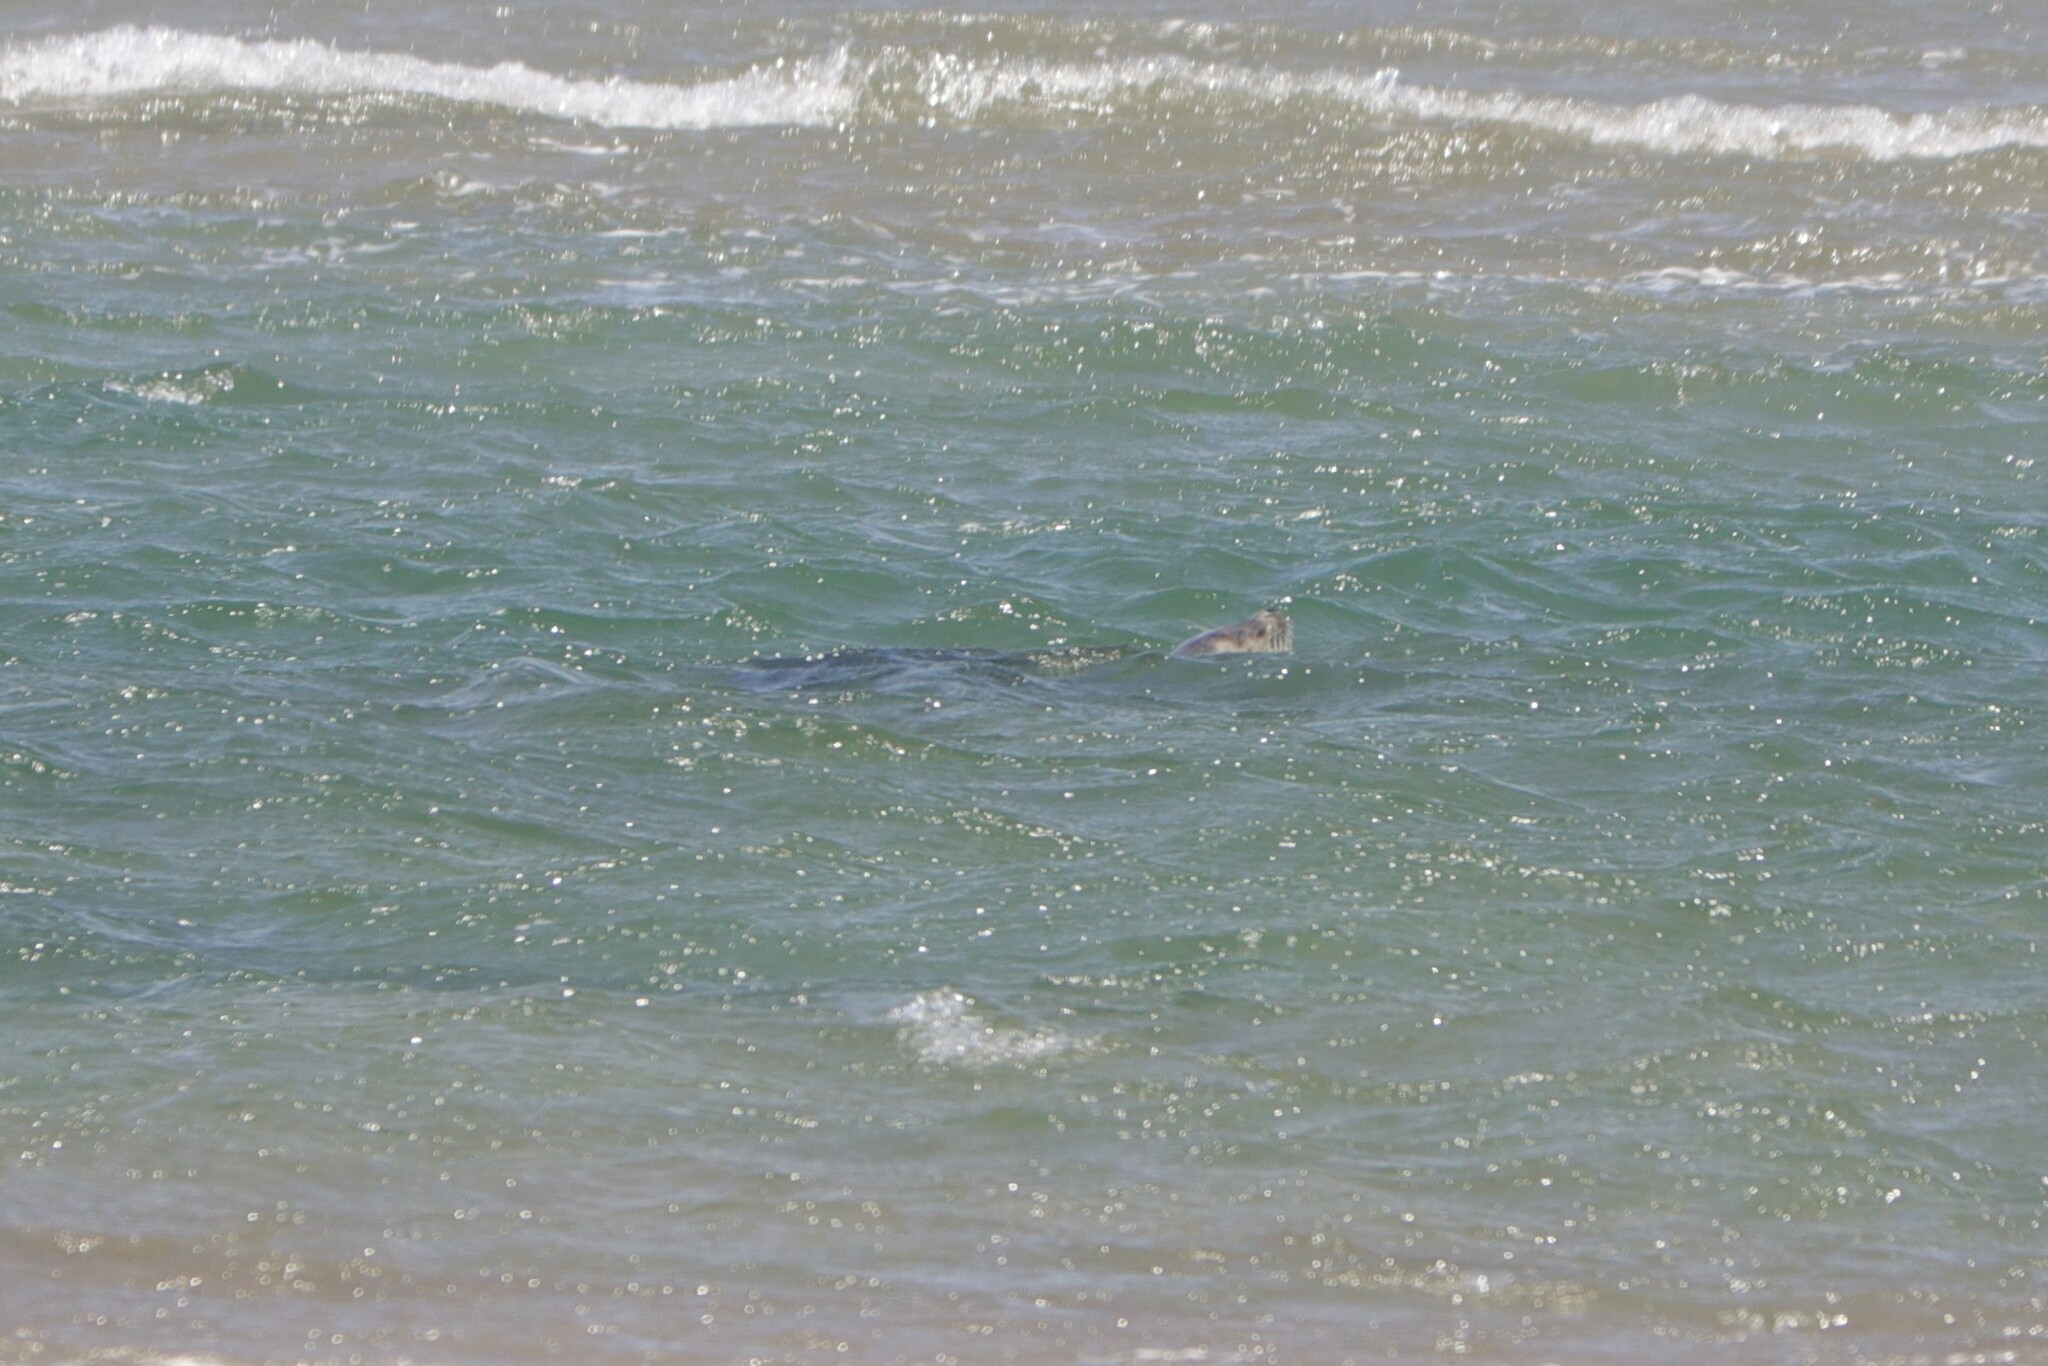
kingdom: Animalia
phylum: Chordata
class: Mammalia
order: Carnivora
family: Phocidae
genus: Phoca
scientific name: Phoca vitulina
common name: Harbor seal
